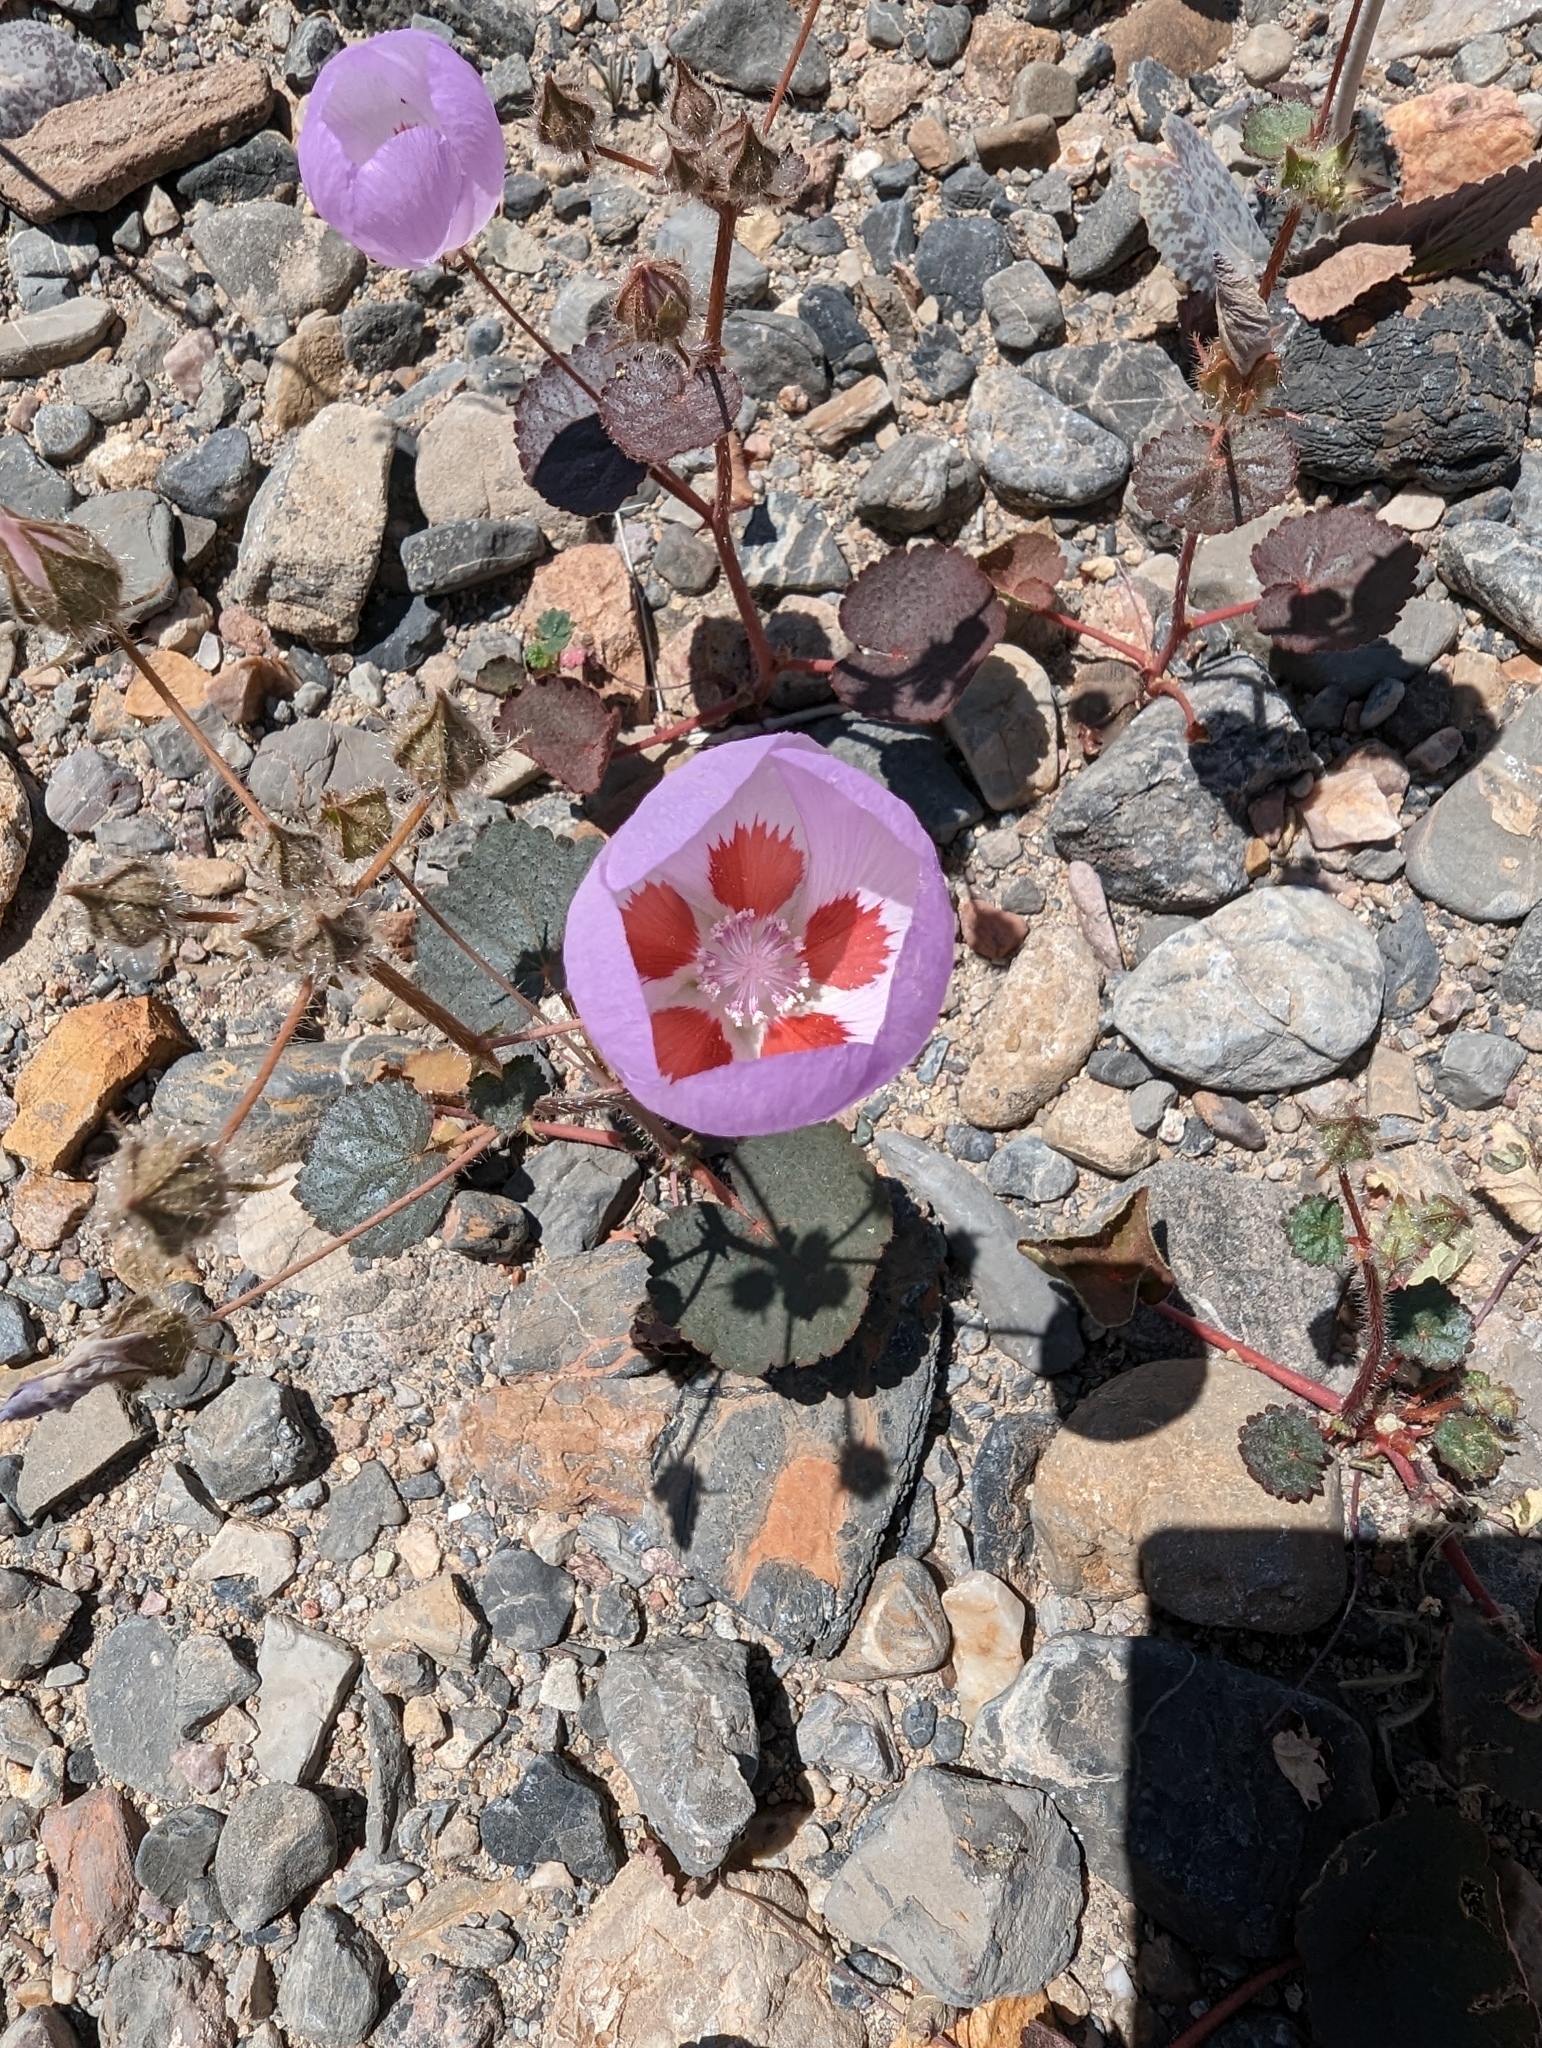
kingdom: Plantae
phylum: Tracheophyta
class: Magnoliopsida
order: Malvales
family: Malvaceae
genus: Eremalche
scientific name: Eremalche rotundifolia
